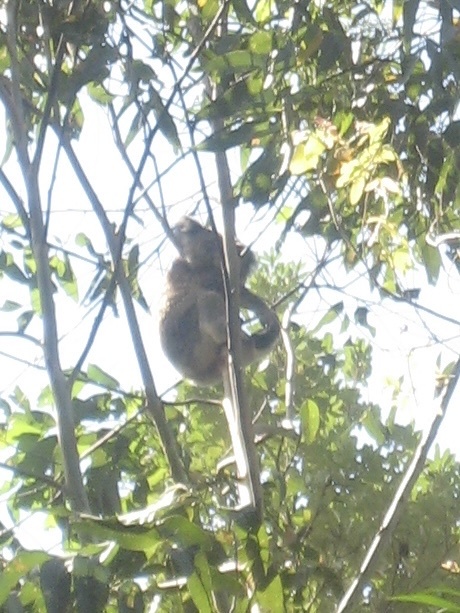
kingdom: Animalia
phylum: Chordata
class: Mammalia
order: Diprotodontia
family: Phascolarctidae
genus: Phascolarctos
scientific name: Phascolarctos cinereus
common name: Koala
